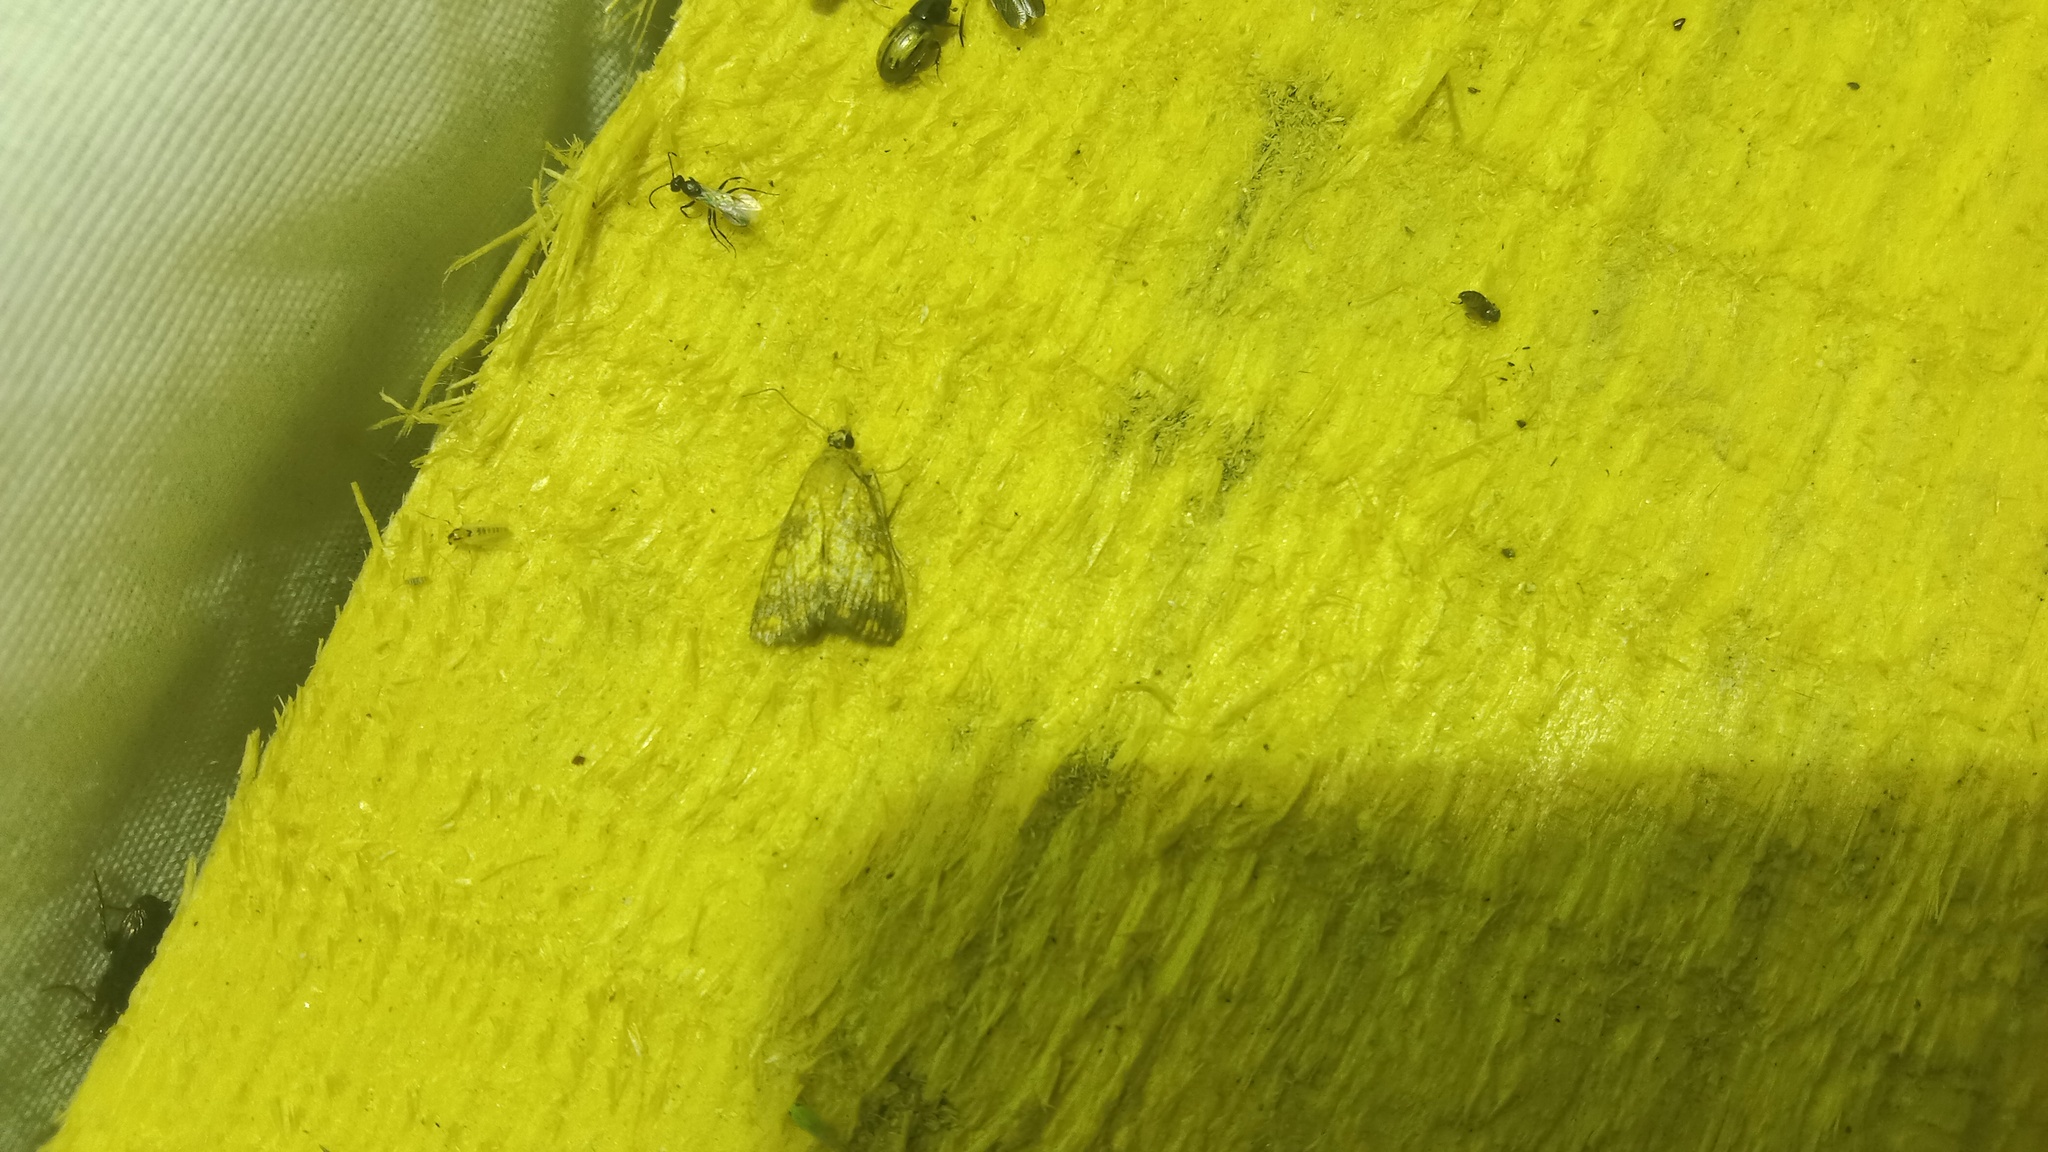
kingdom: Animalia
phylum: Arthropoda
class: Insecta
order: Lepidoptera
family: Crambidae
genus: Evergestis
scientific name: Evergestis politalis
